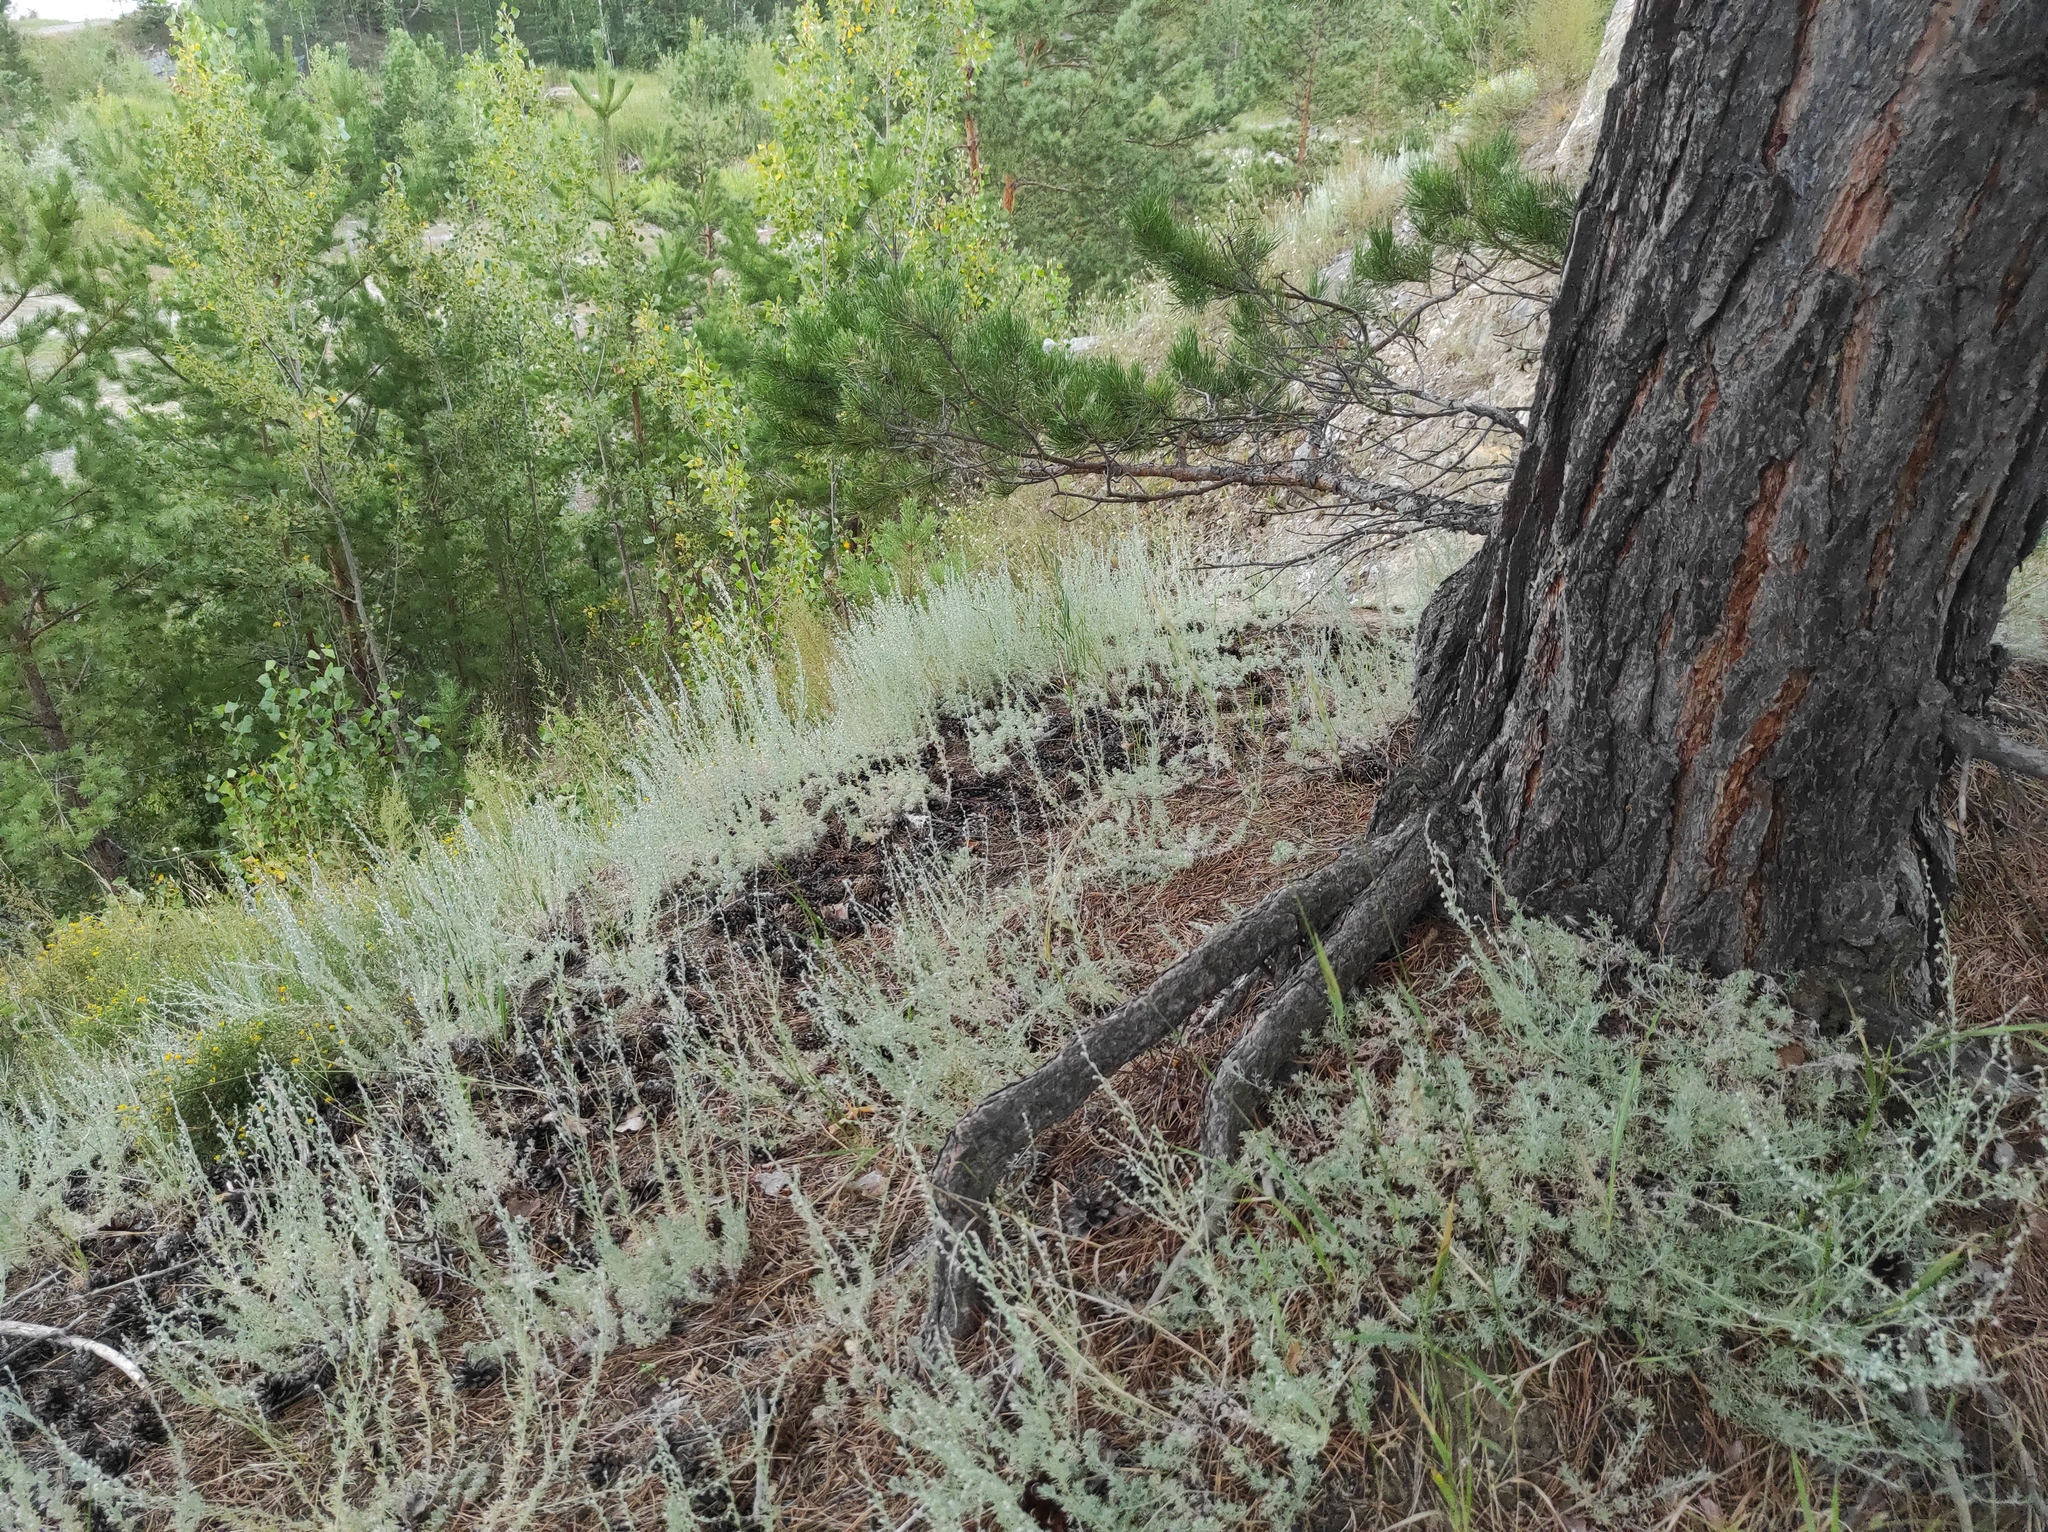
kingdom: Plantae
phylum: Tracheophyta
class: Magnoliopsida
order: Asterales
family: Asteraceae
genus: Artemisia
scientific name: Artemisia frigida
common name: Prairie sagewort
